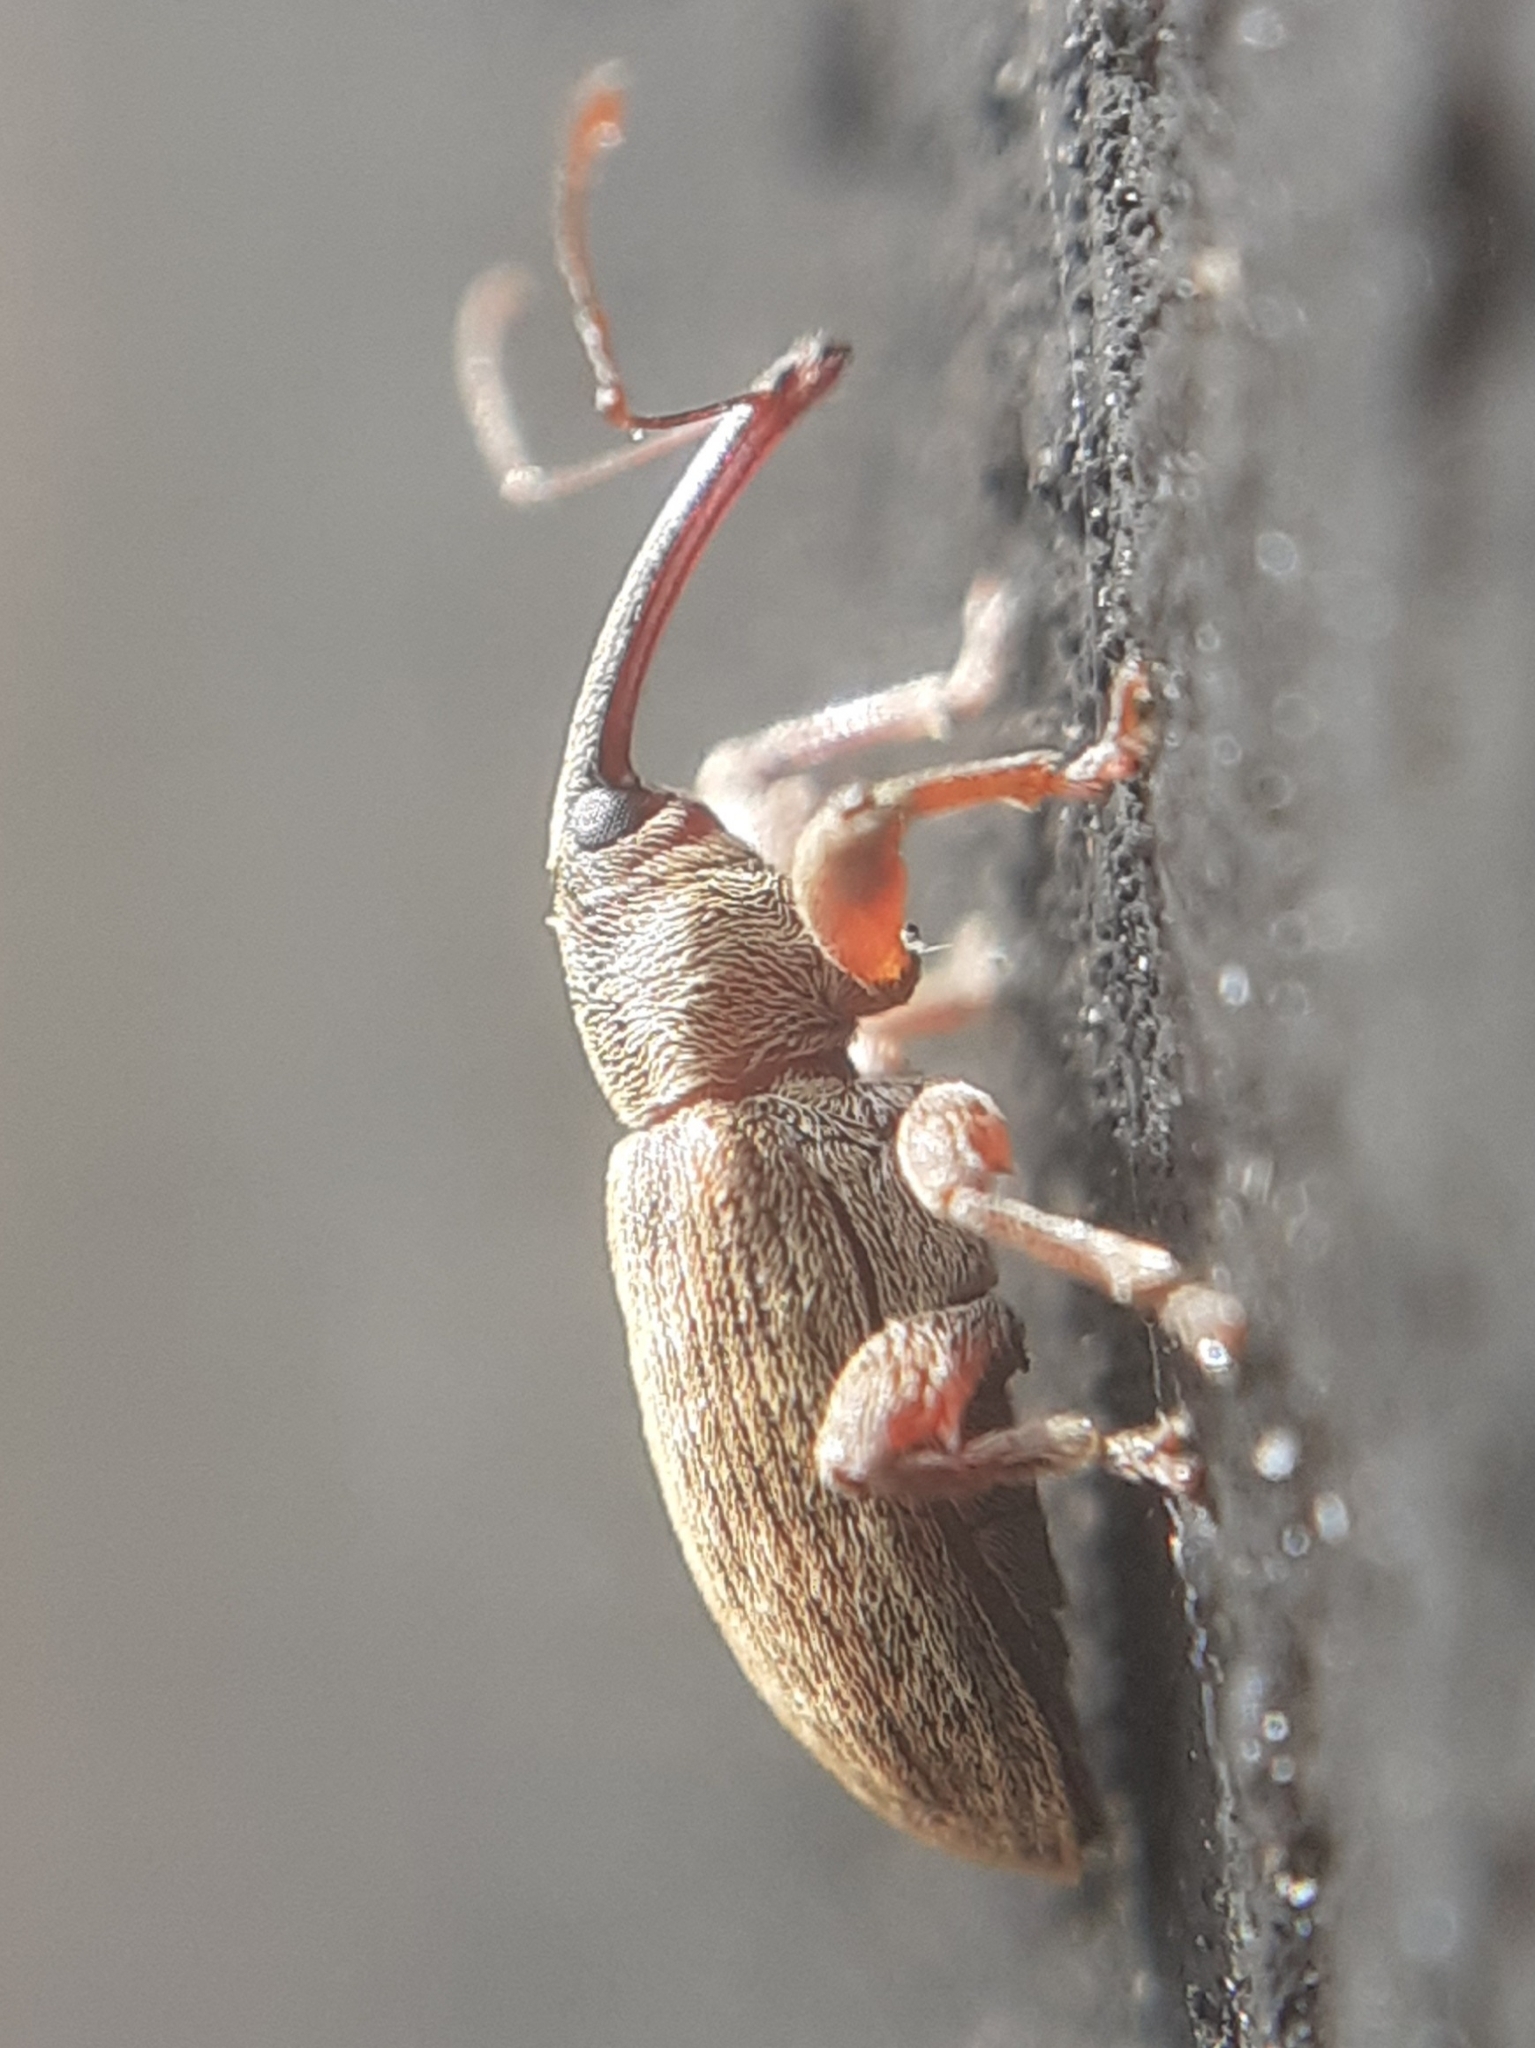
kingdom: Animalia
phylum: Arthropoda
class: Insecta
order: Coleoptera
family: Brachyceridae
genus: Erirhinus
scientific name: Erirhinus filirostris
